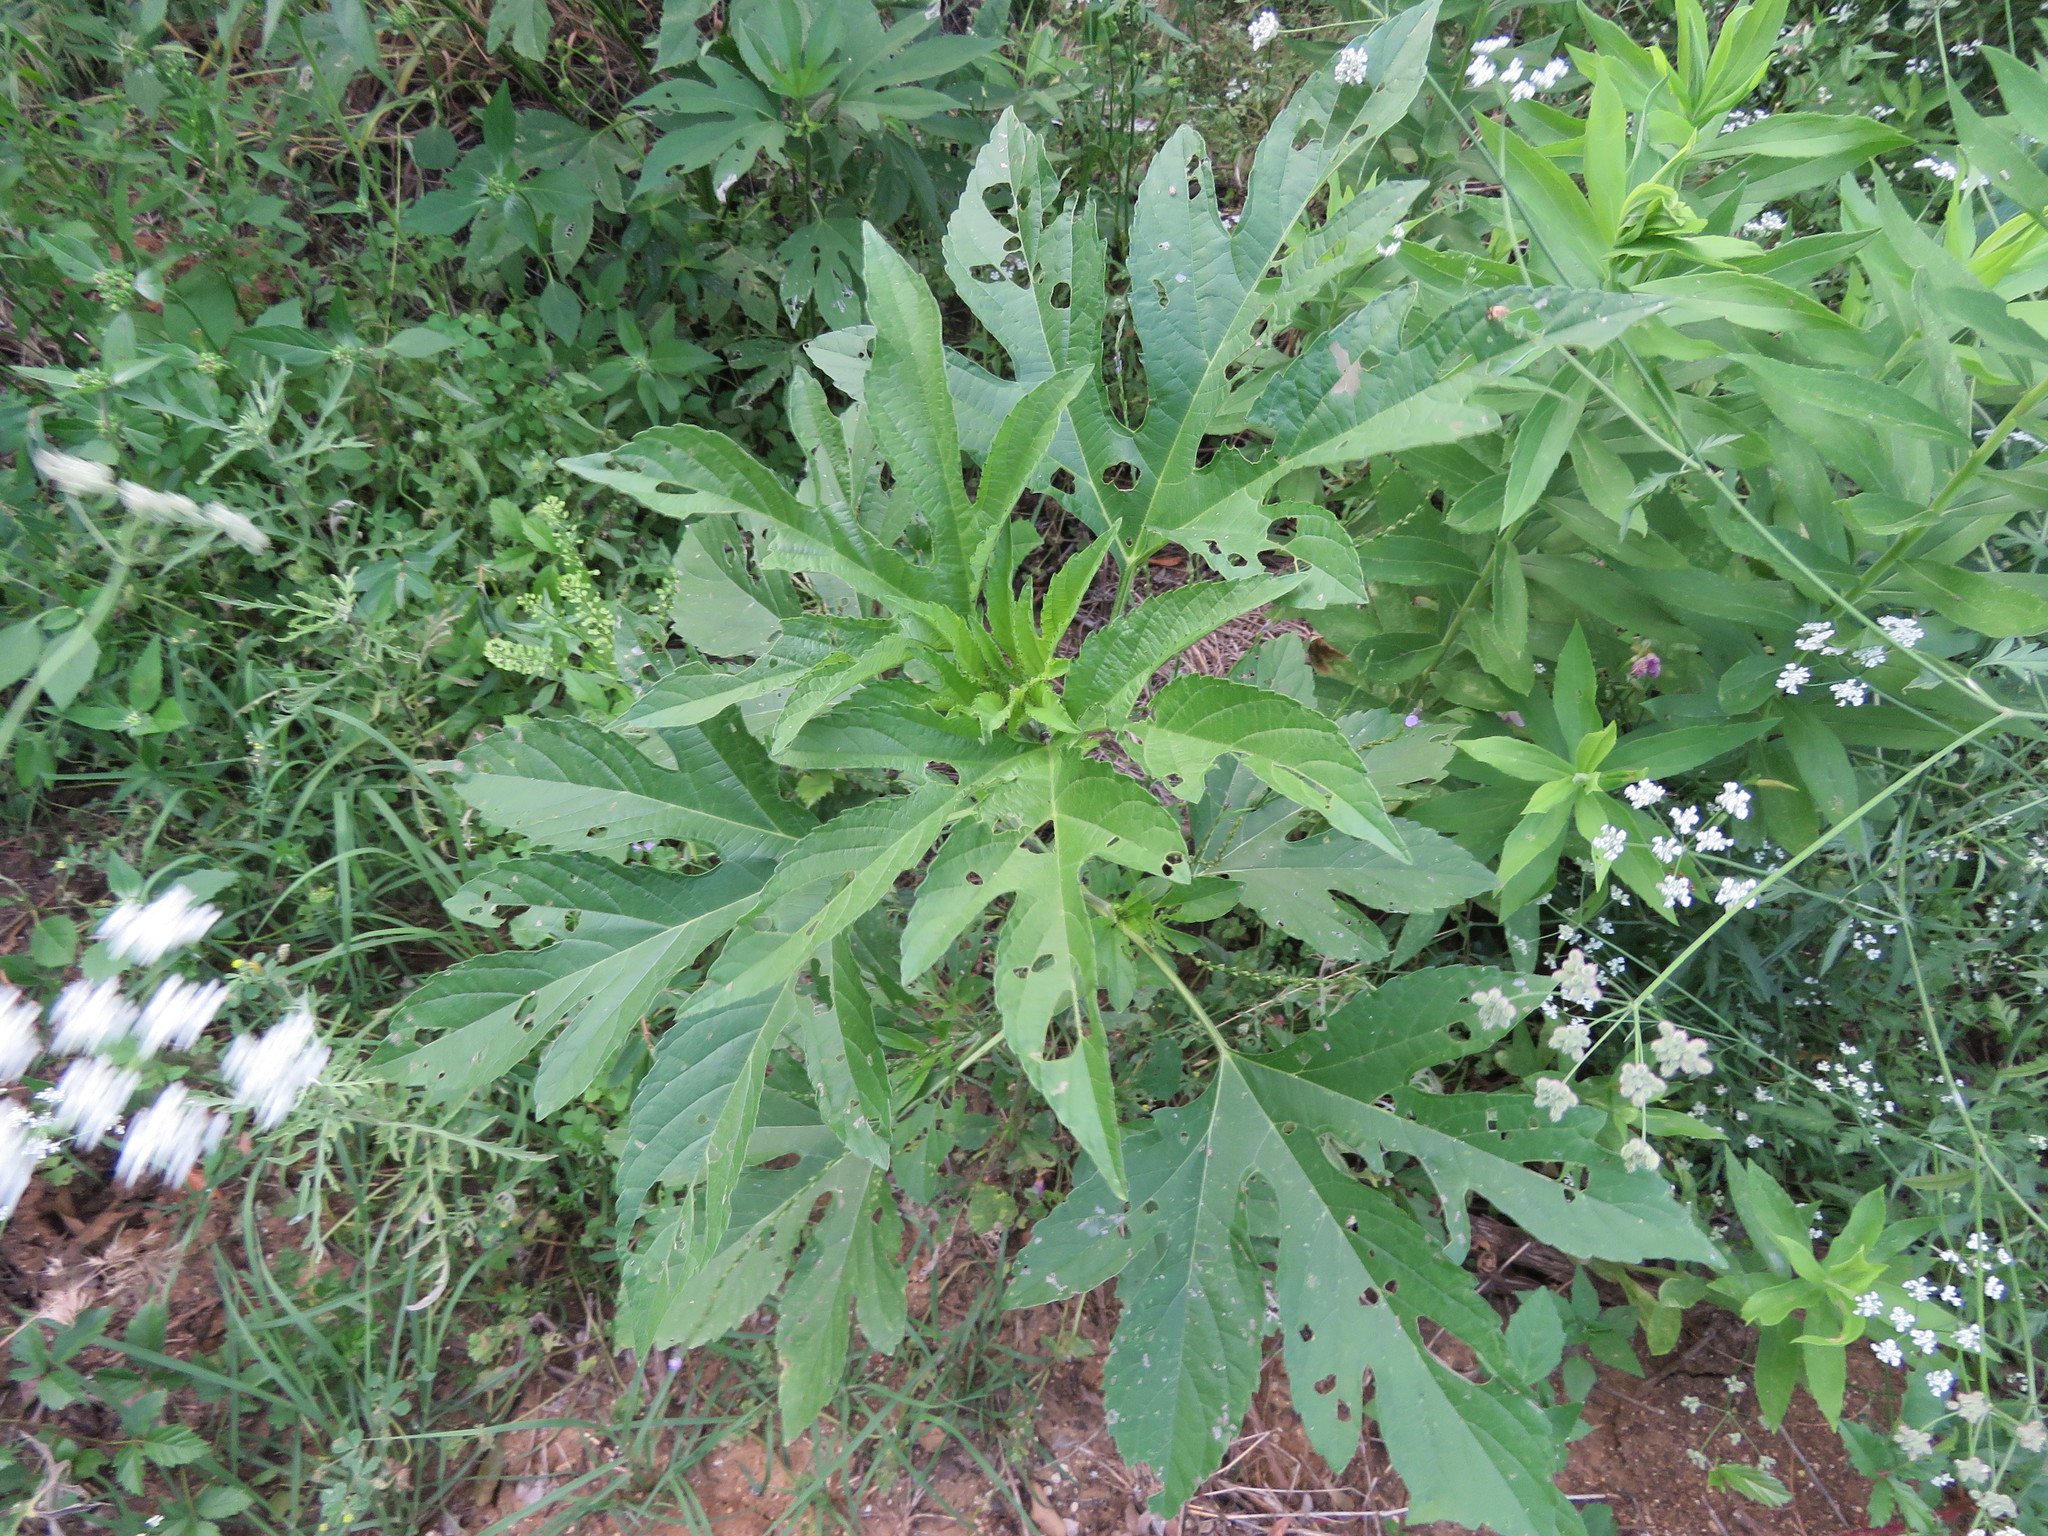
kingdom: Plantae
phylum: Tracheophyta
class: Magnoliopsida
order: Asterales
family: Asteraceae
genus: Ambrosia
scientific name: Ambrosia trifida
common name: Giant ragweed
